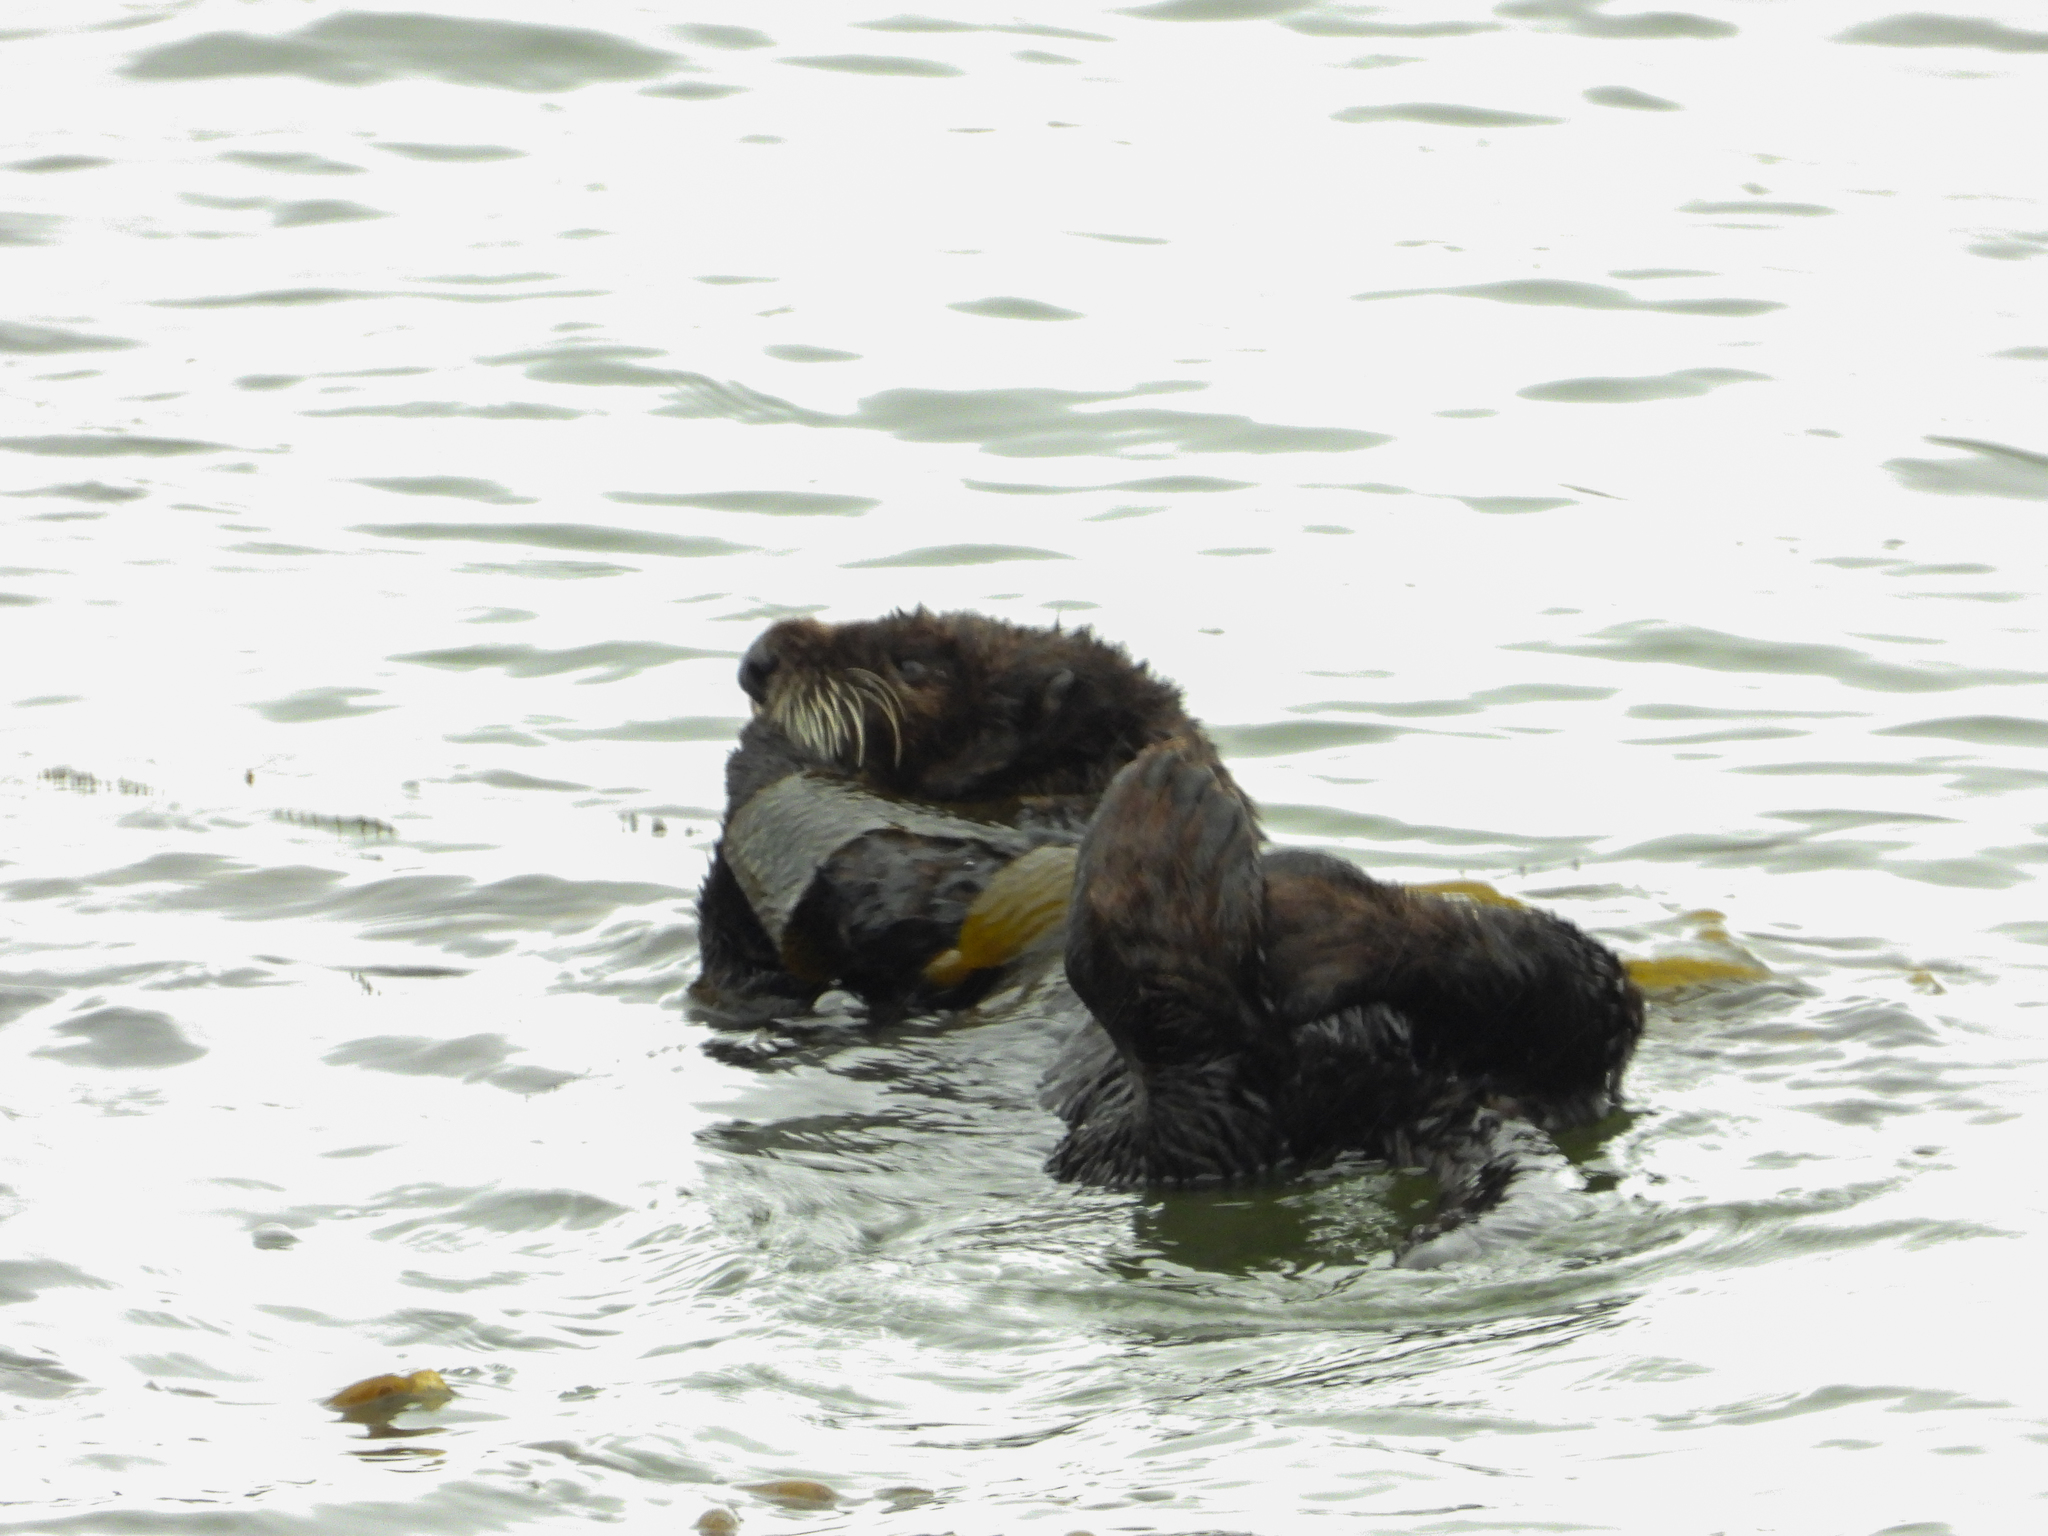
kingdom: Animalia
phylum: Chordata
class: Mammalia
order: Carnivora
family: Mustelidae
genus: Enhydra
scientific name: Enhydra lutris
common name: Sea otter
